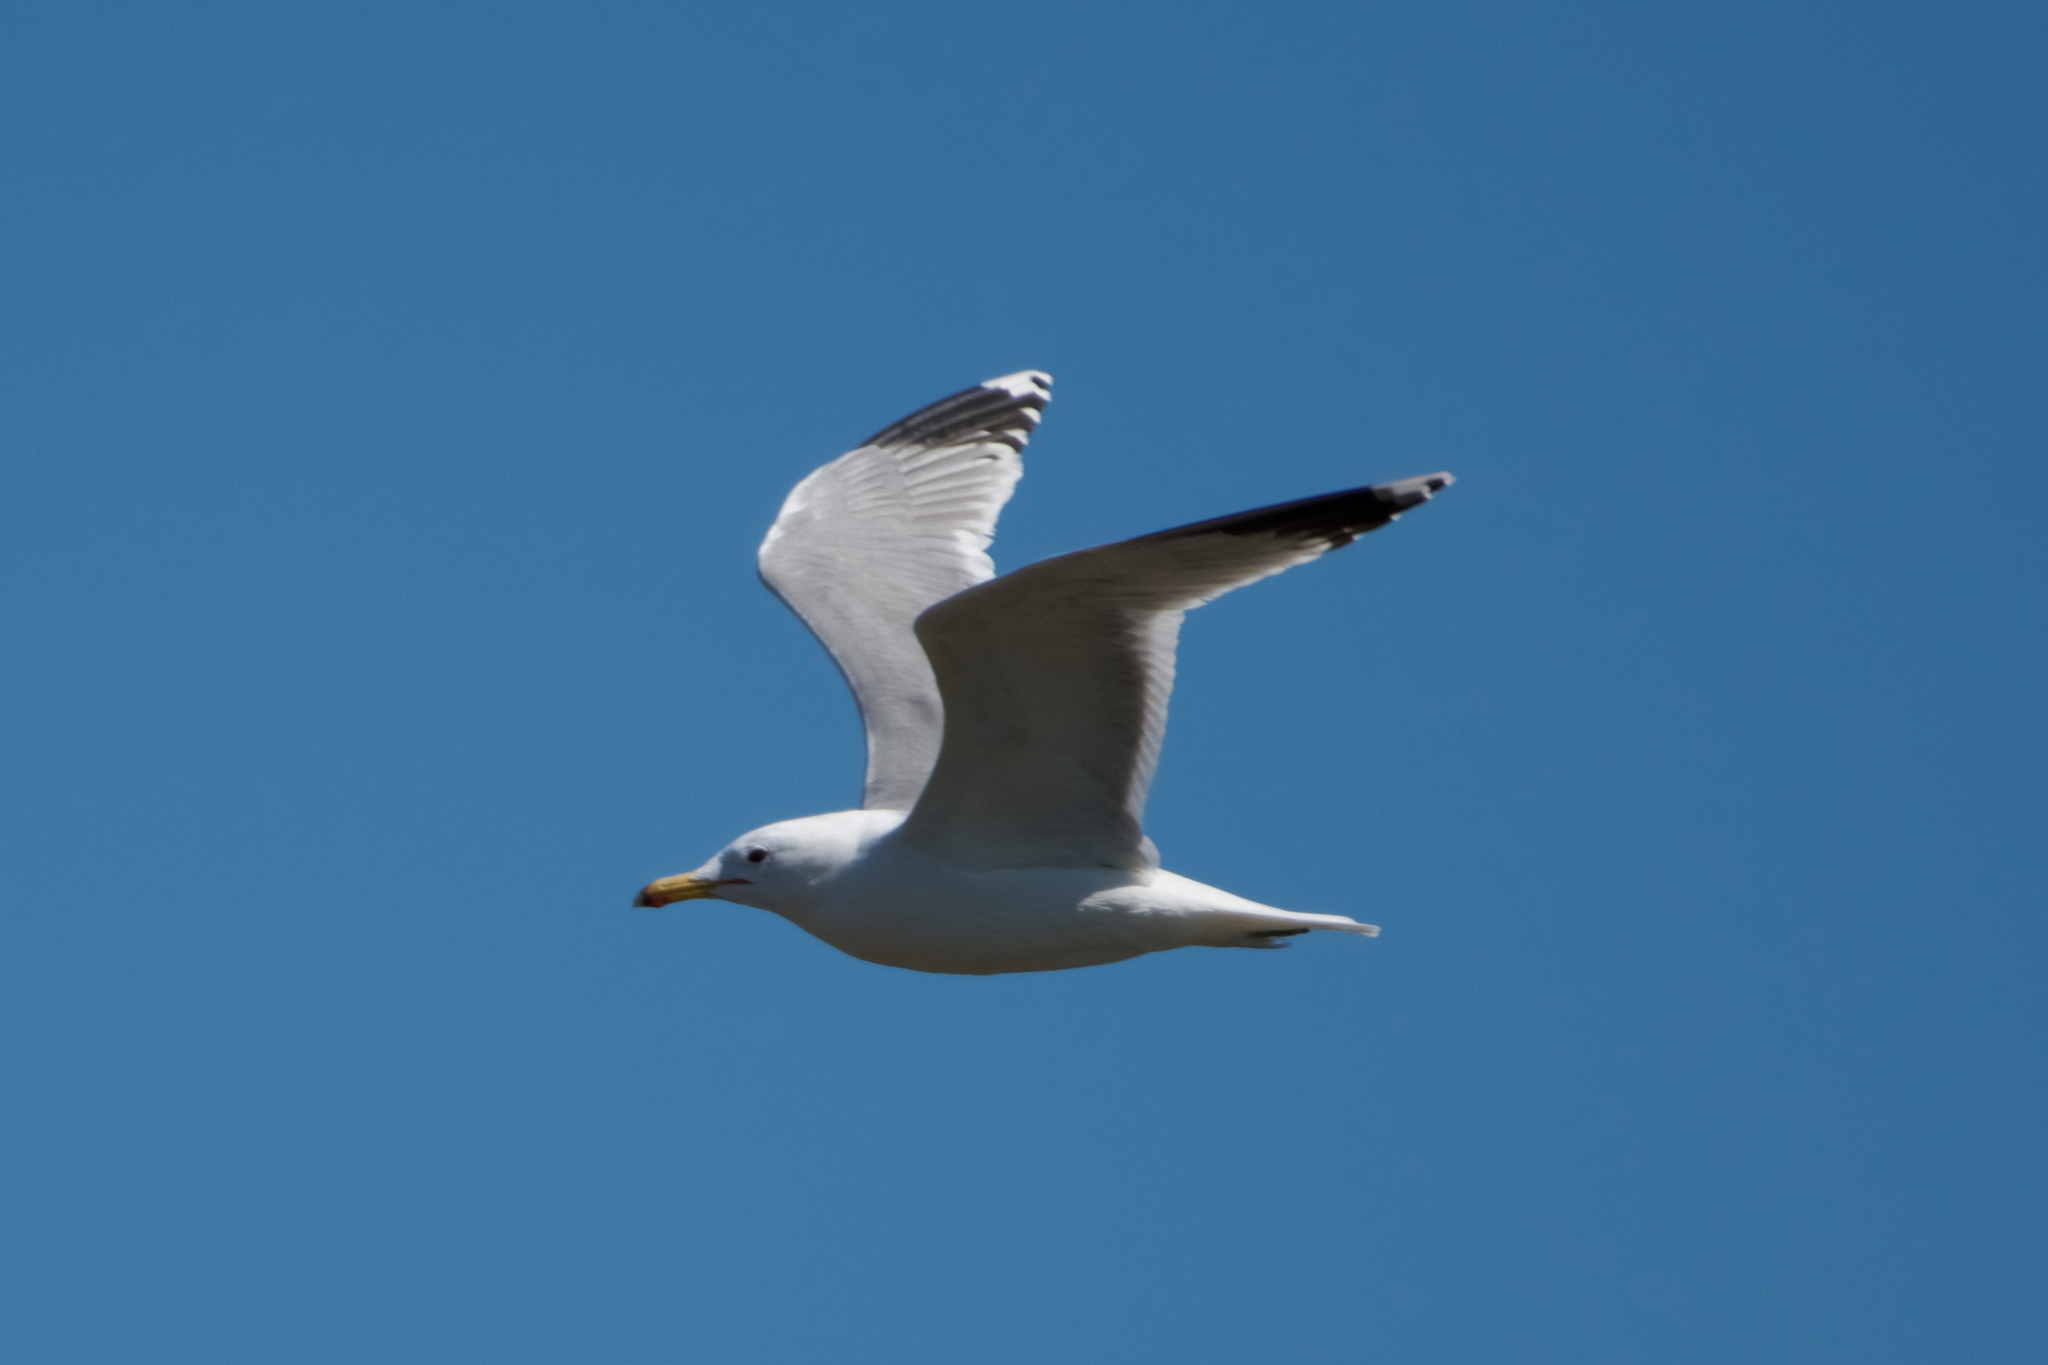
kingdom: Animalia
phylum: Chordata
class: Aves
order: Charadriiformes
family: Laridae
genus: Larus
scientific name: Larus californicus
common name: California gull
